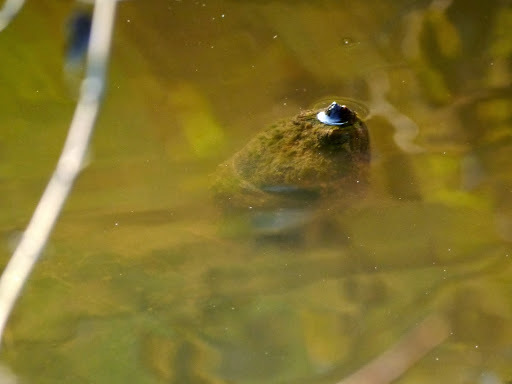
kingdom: Animalia
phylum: Chordata
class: Testudines
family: Chelydridae
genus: Chelydra
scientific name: Chelydra serpentina
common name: Common snapping turtle
